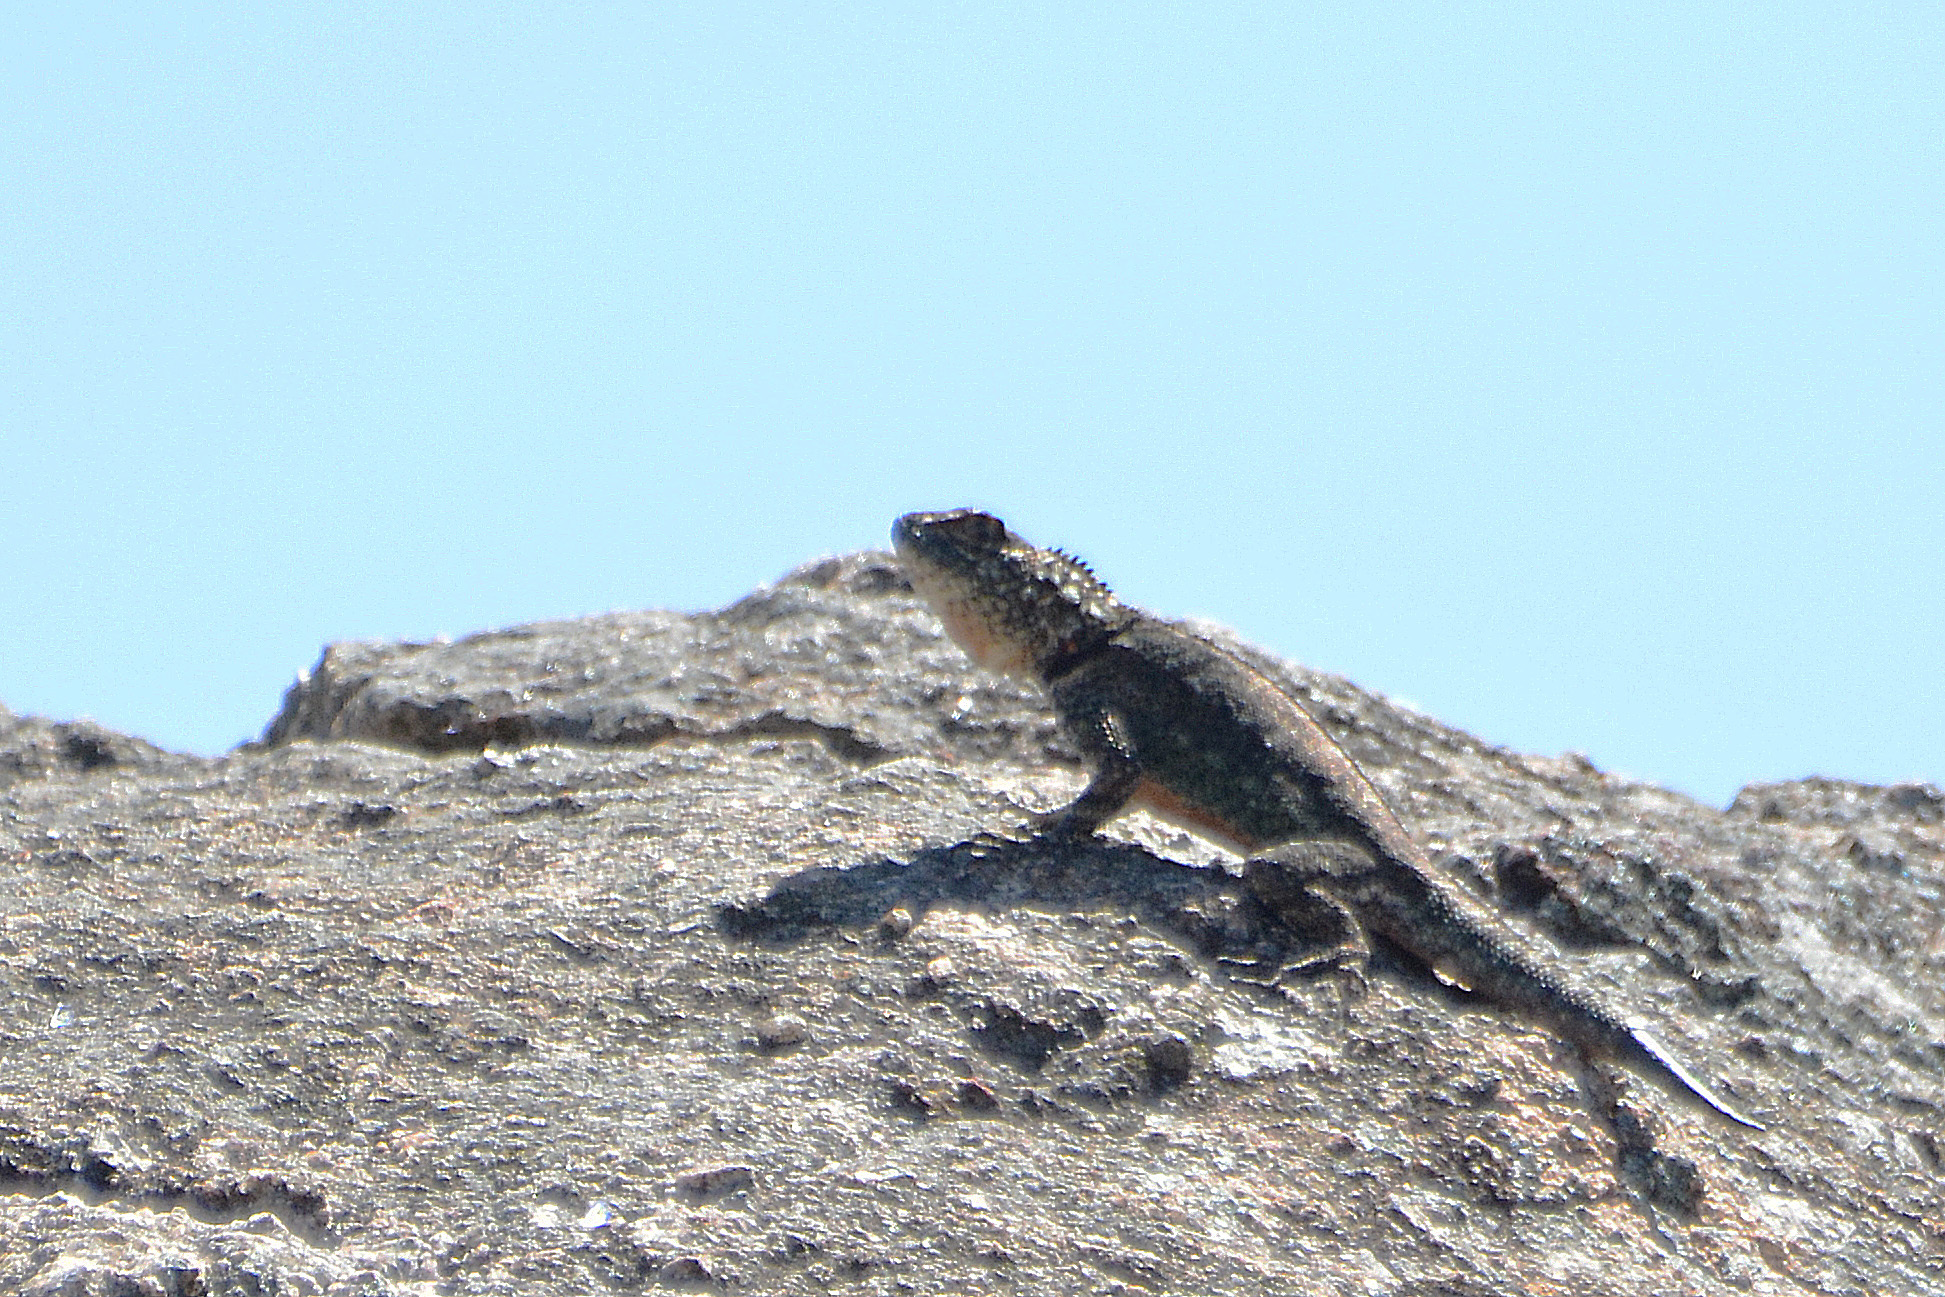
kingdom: Animalia
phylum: Chordata
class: Squamata
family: Tropiduridae
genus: Tropidurus
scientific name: Tropidurus spinulosus
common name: Spiny lava lizard
